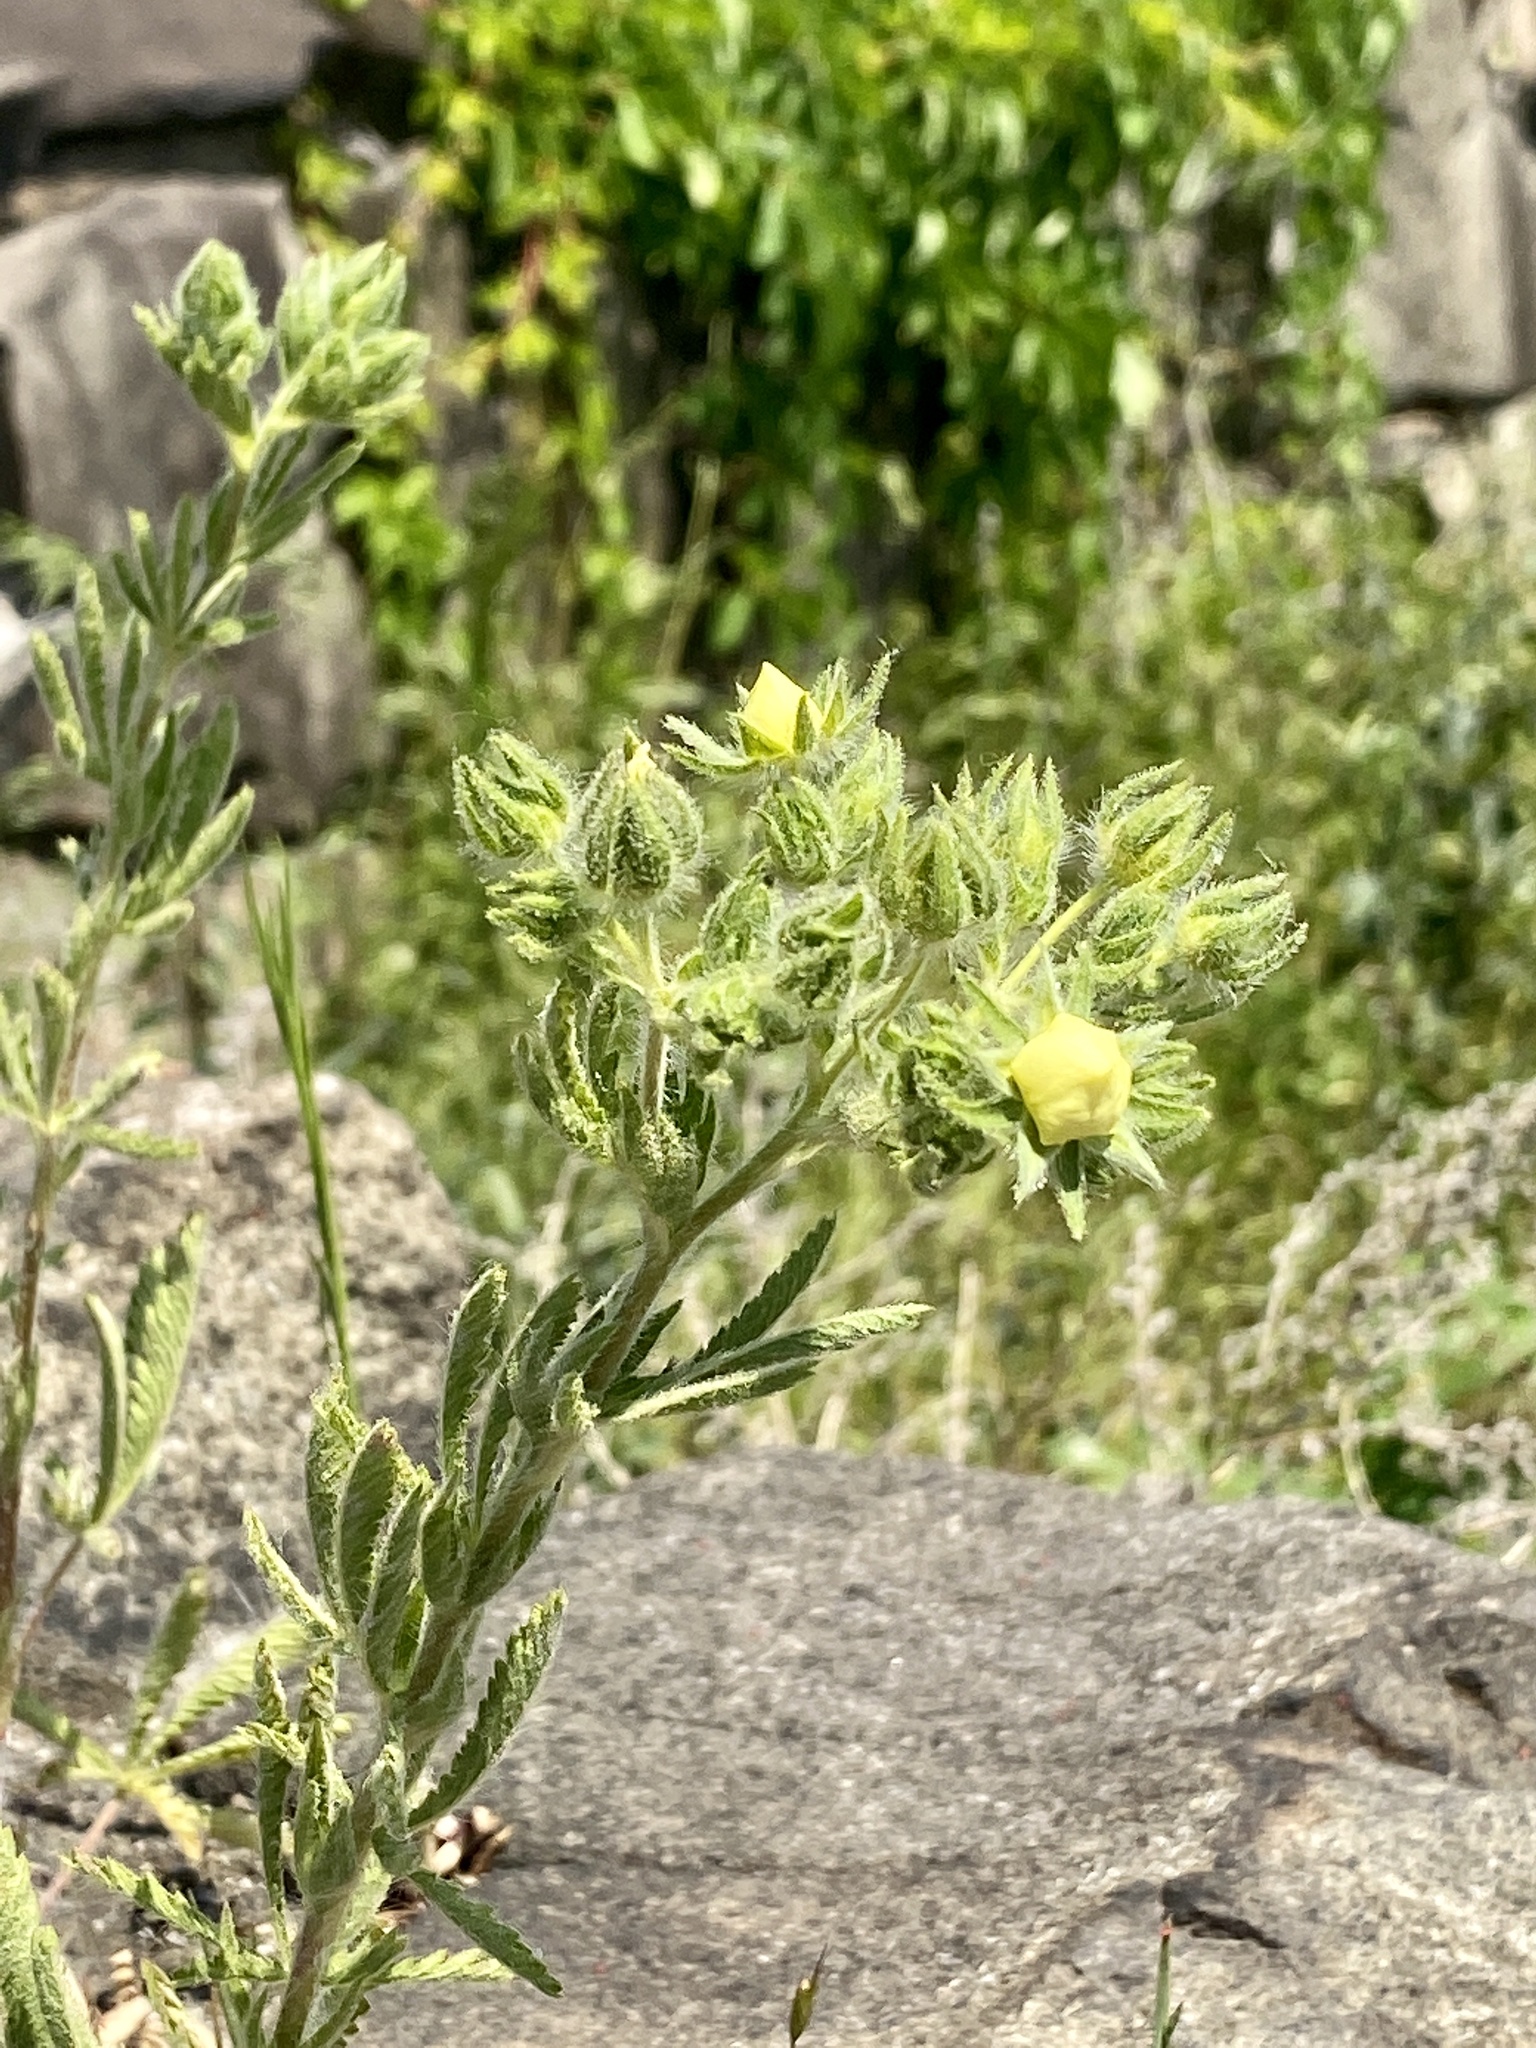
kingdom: Plantae
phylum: Tracheophyta
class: Magnoliopsida
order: Rosales
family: Rosaceae
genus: Potentilla
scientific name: Potentilla recta
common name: Sulphur cinquefoil
